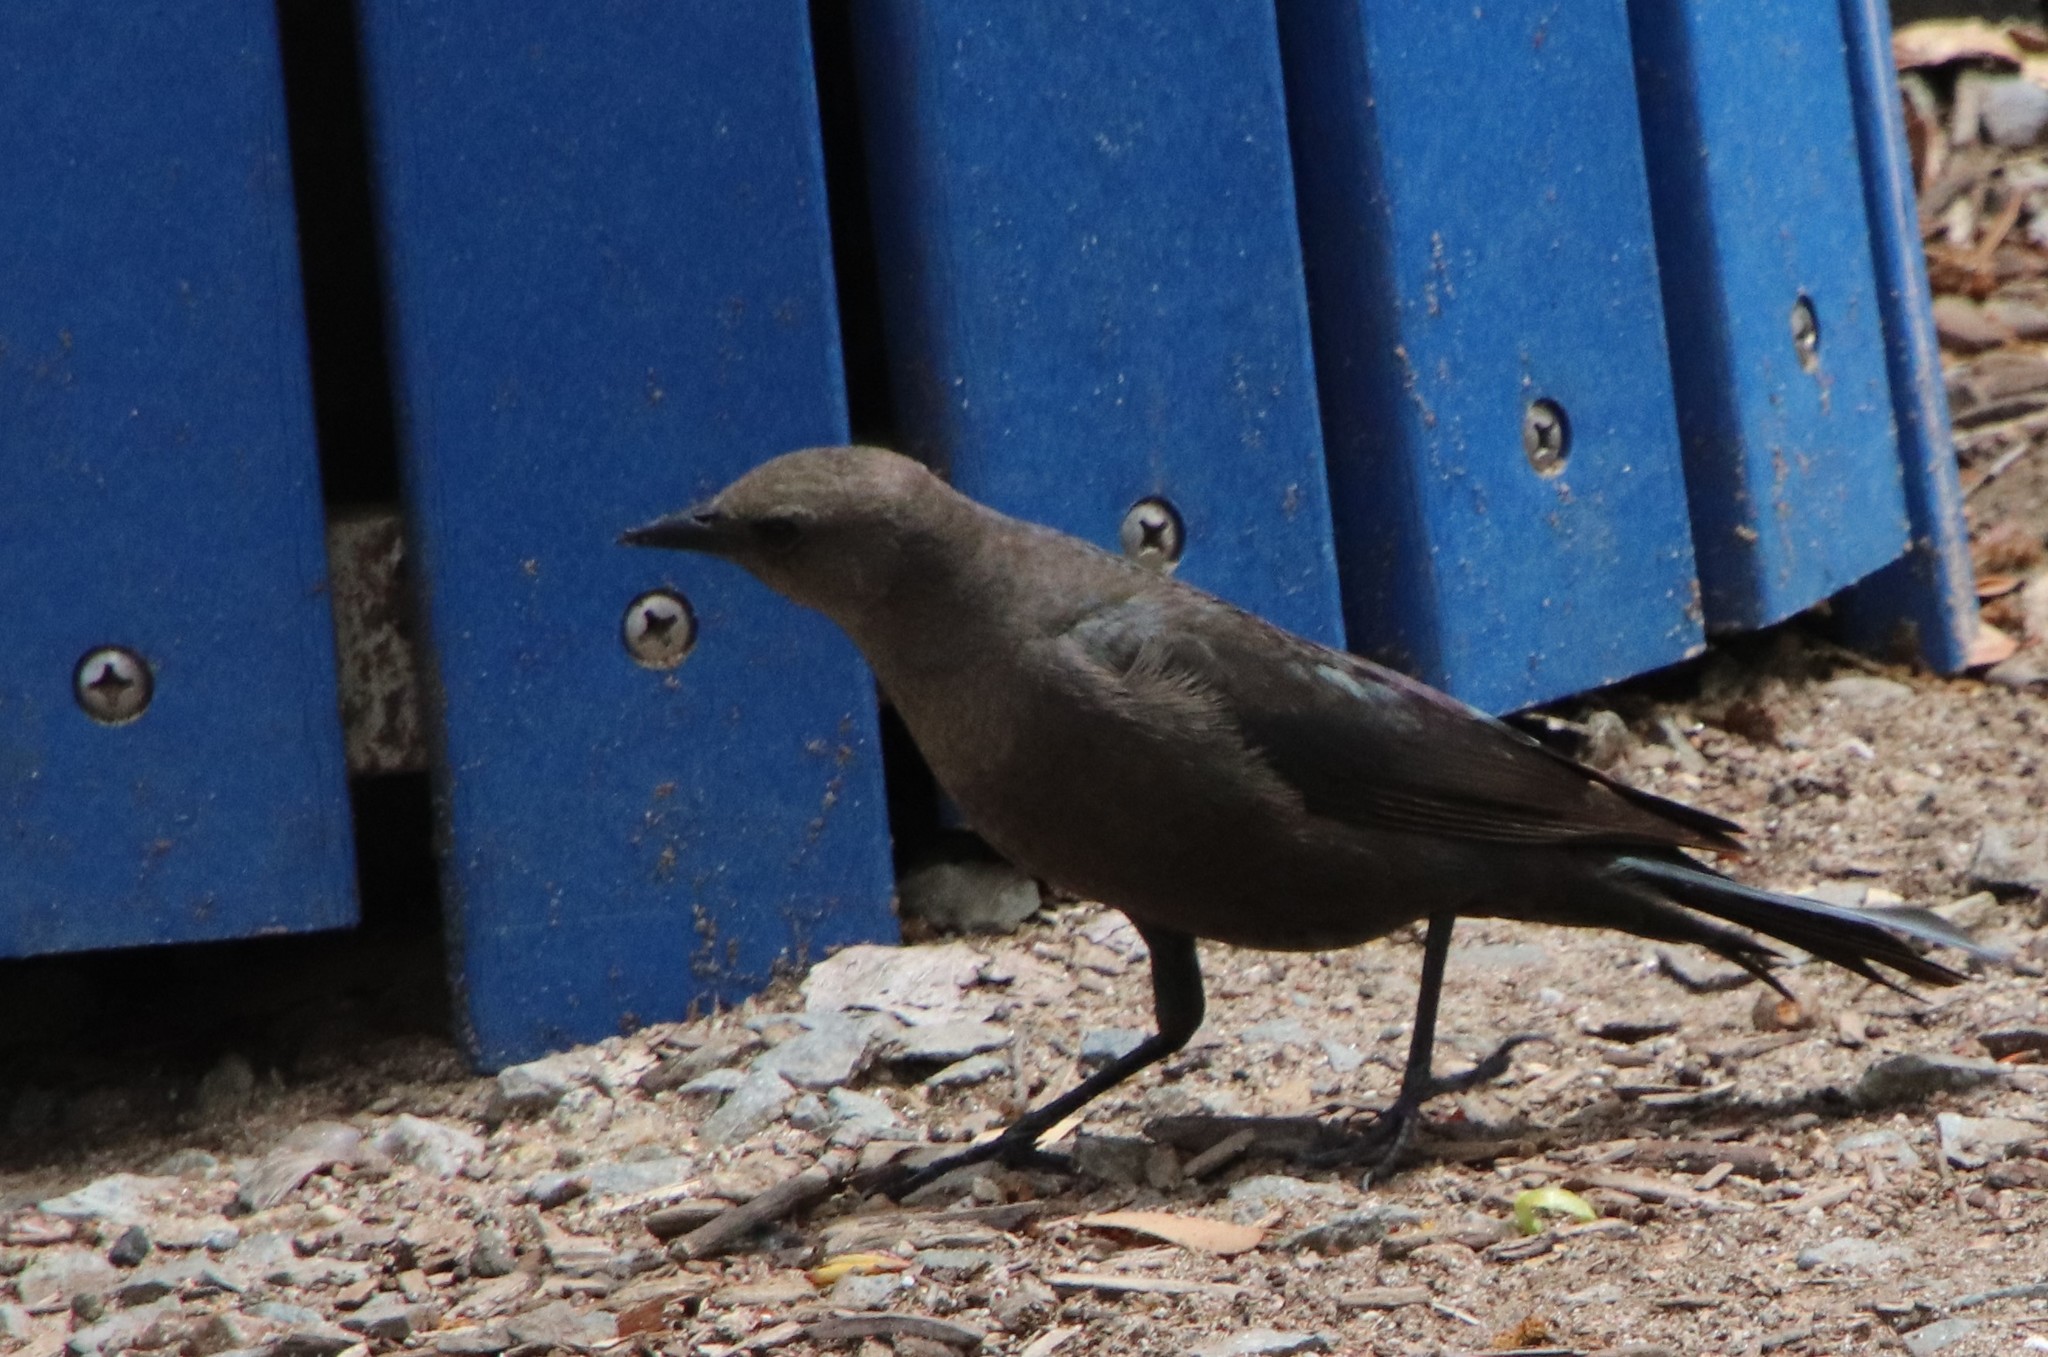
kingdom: Animalia
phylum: Chordata
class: Aves
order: Passeriformes
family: Icteridae
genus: Euphagus
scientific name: Euphagus cyanocephalus
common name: Brewer's blackbird
